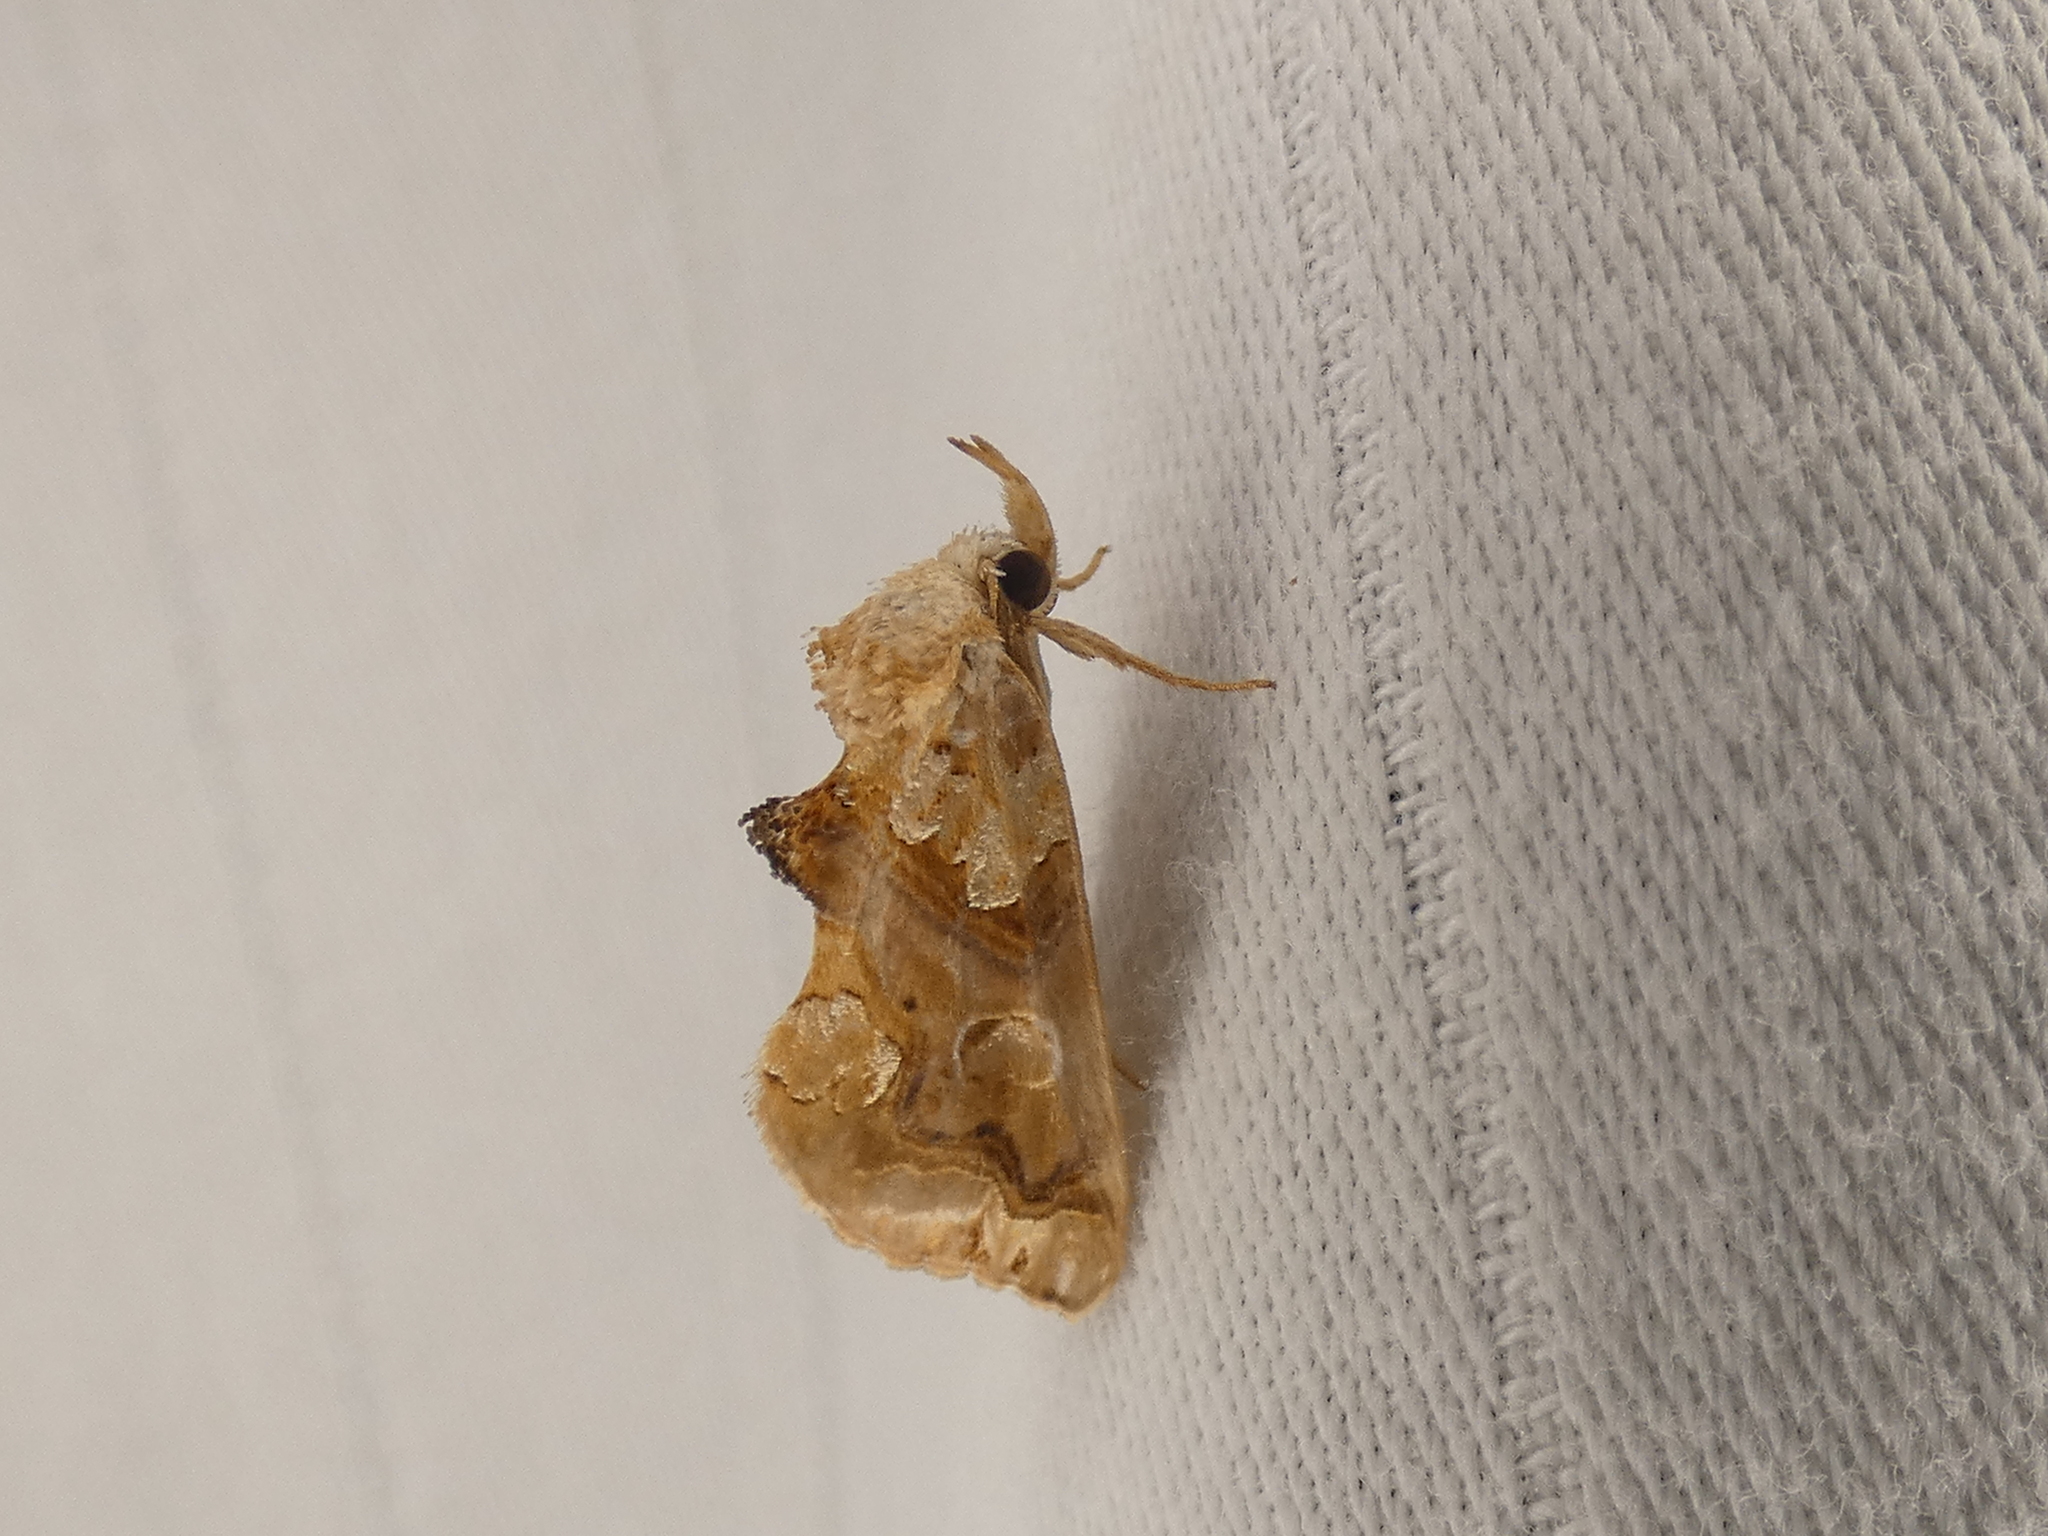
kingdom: Animalia
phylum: Arthropoda
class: Insecta
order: Lepidoptera
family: Erebidae
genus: Plusiodonta
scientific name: Plusiodonta compressipalpis
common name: Moonseed moth
